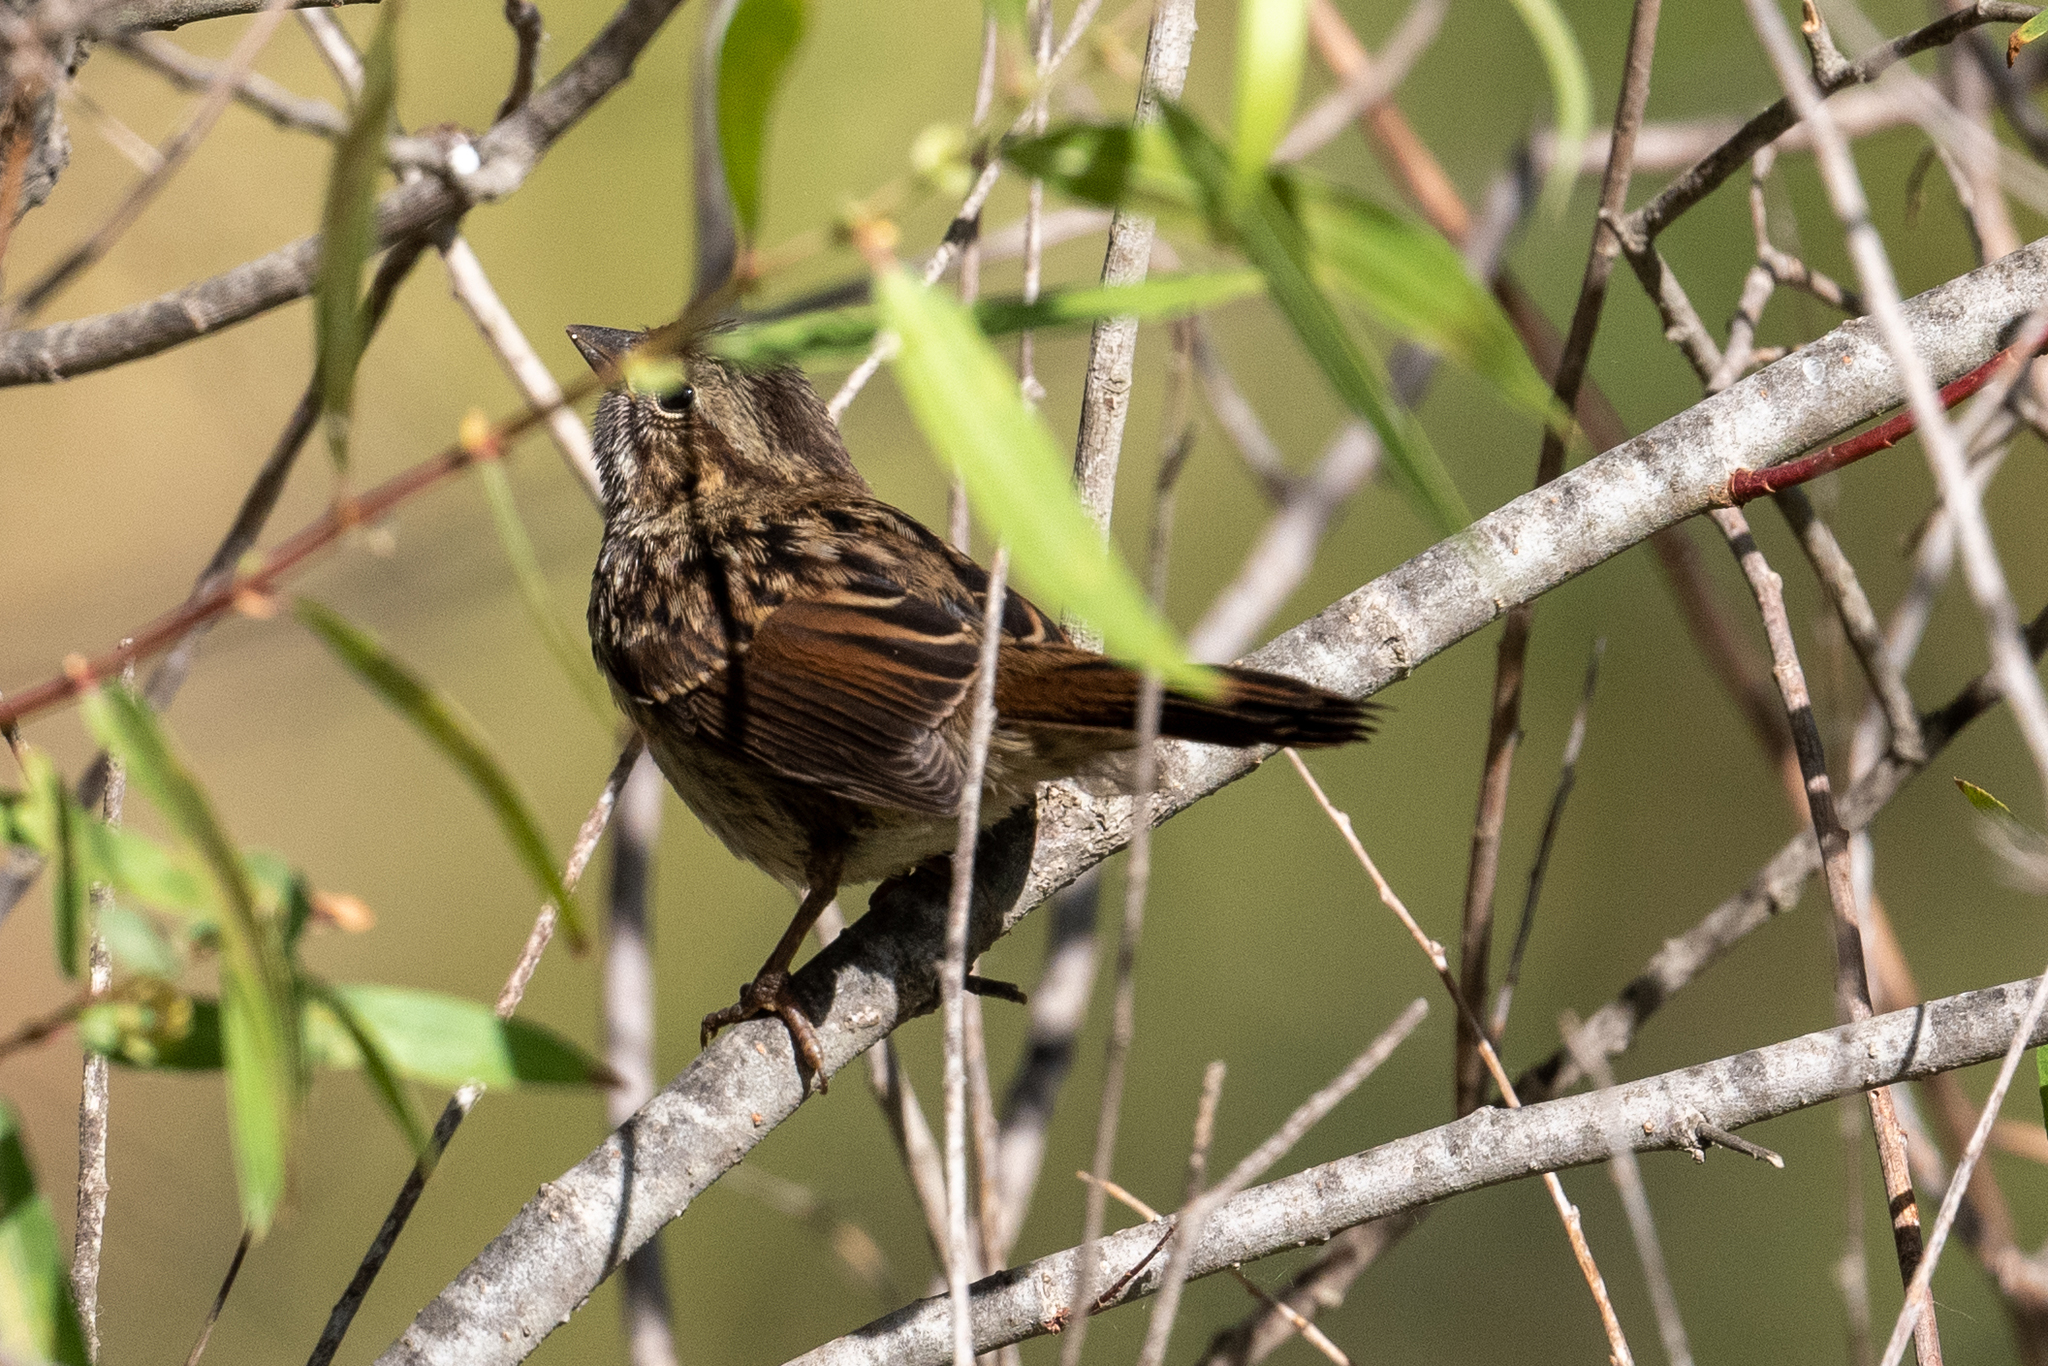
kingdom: Animalia
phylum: Chordata
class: Aves
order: Passeriformes
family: Passerellidae
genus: Melospiza
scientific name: Melospiza melodia
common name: Song sparrow
